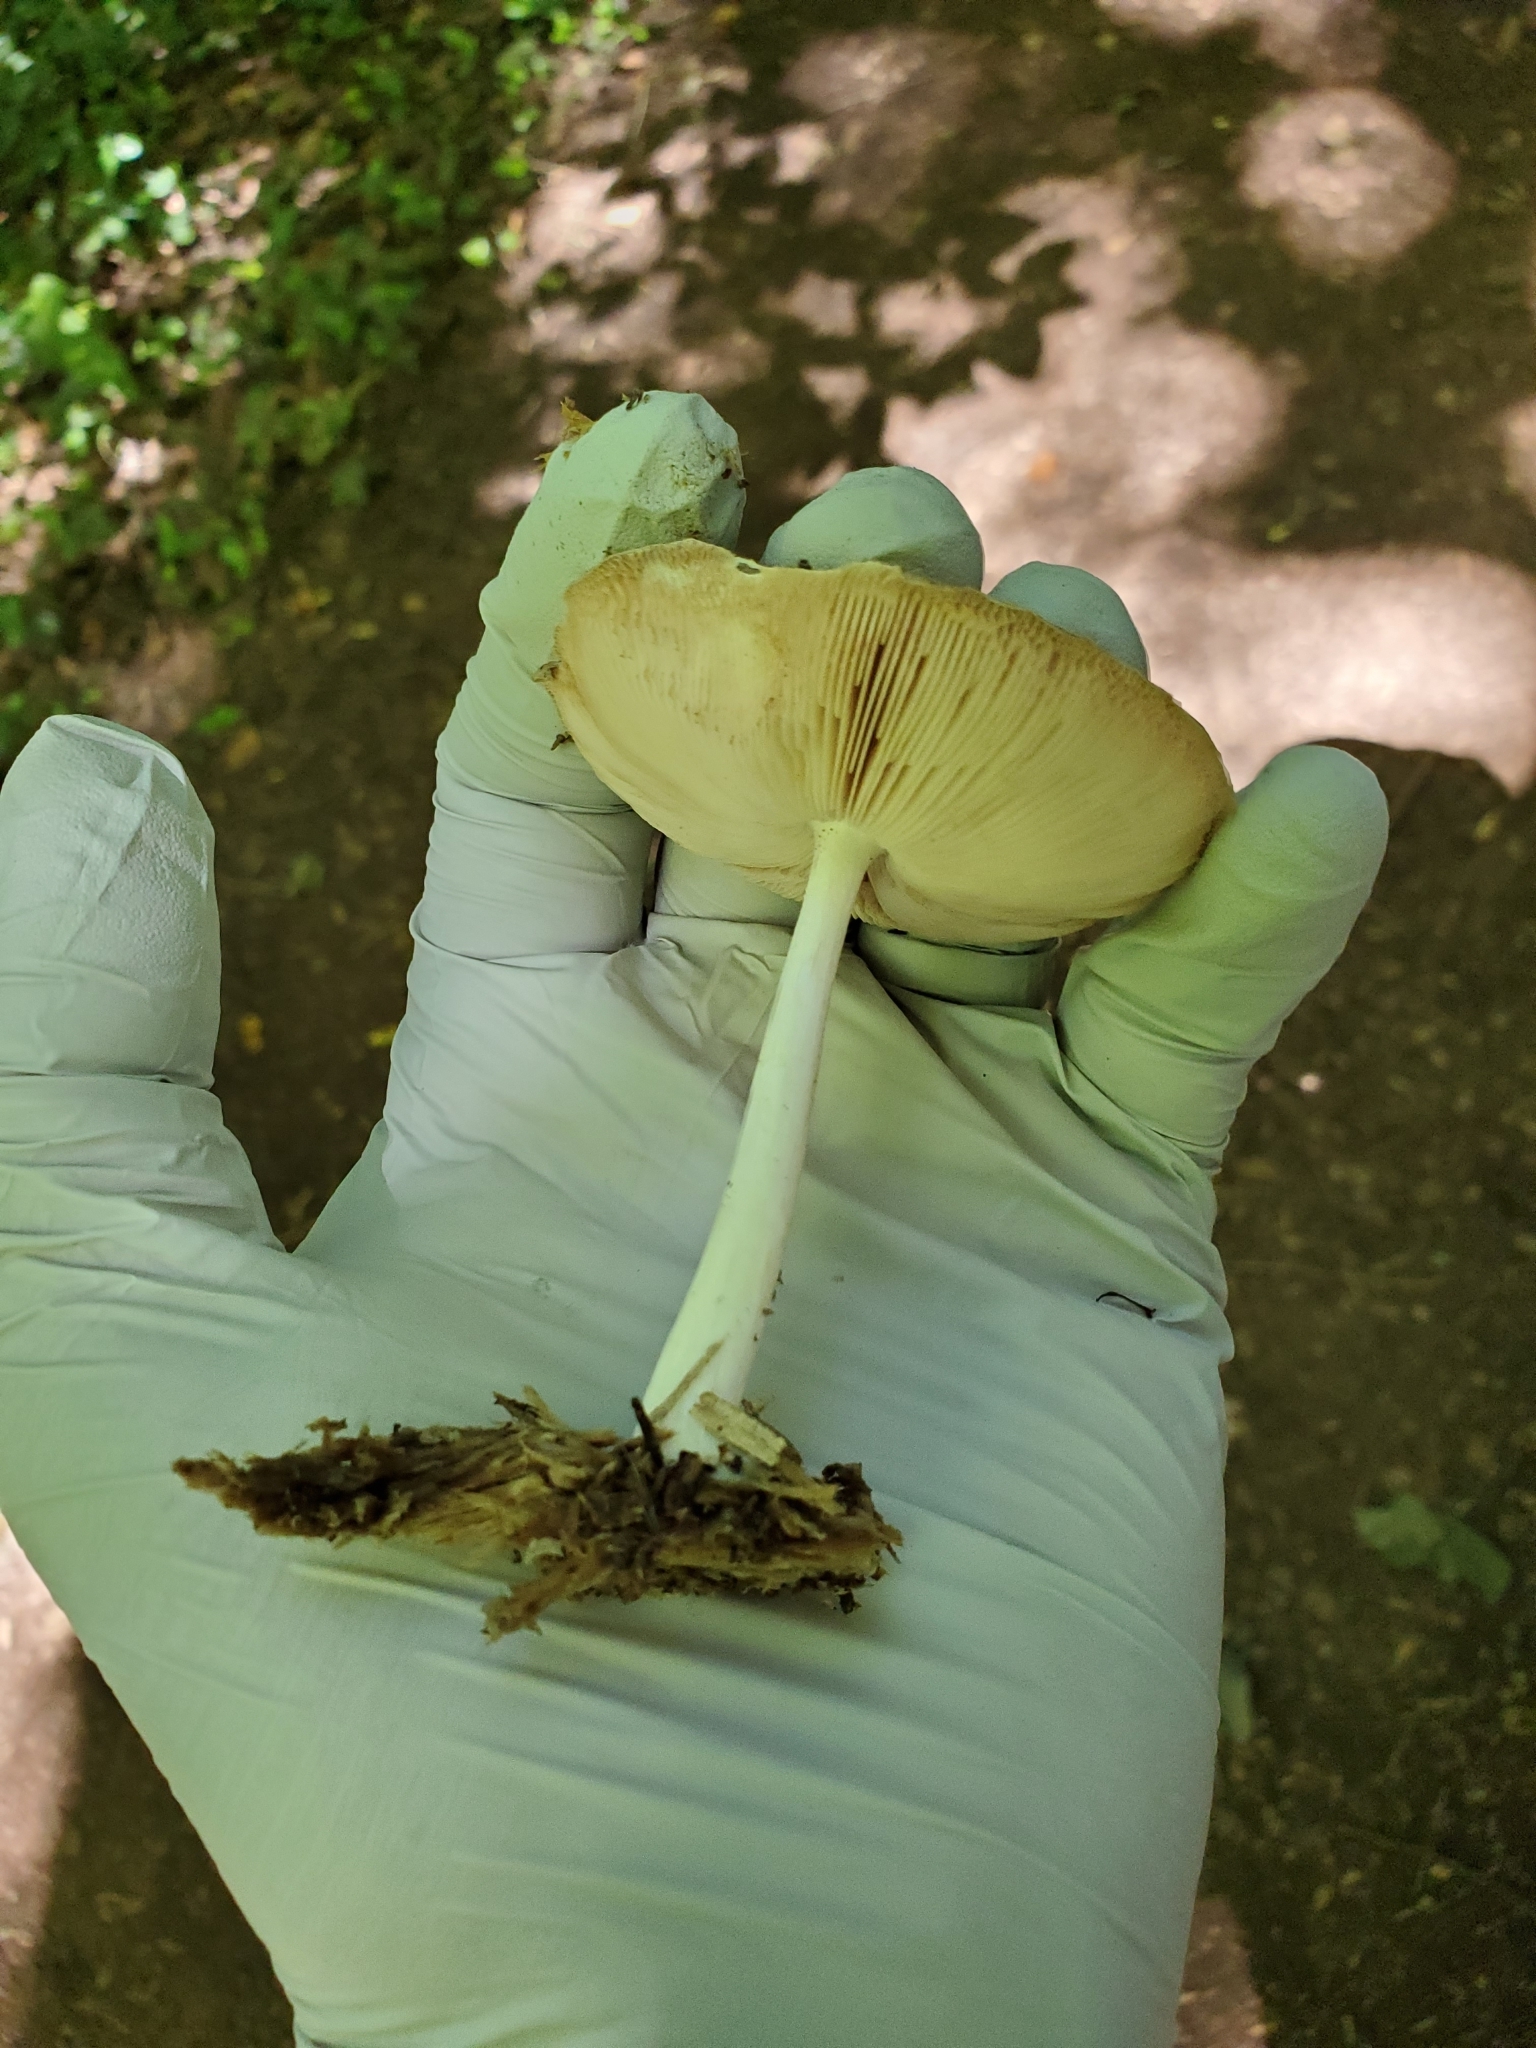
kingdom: Fungi
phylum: Basidiomycota
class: Agaricomycetes
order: Agaricales
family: Pluteaceae
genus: Pluteus
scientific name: Pluteus cervinus
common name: Deer shield
